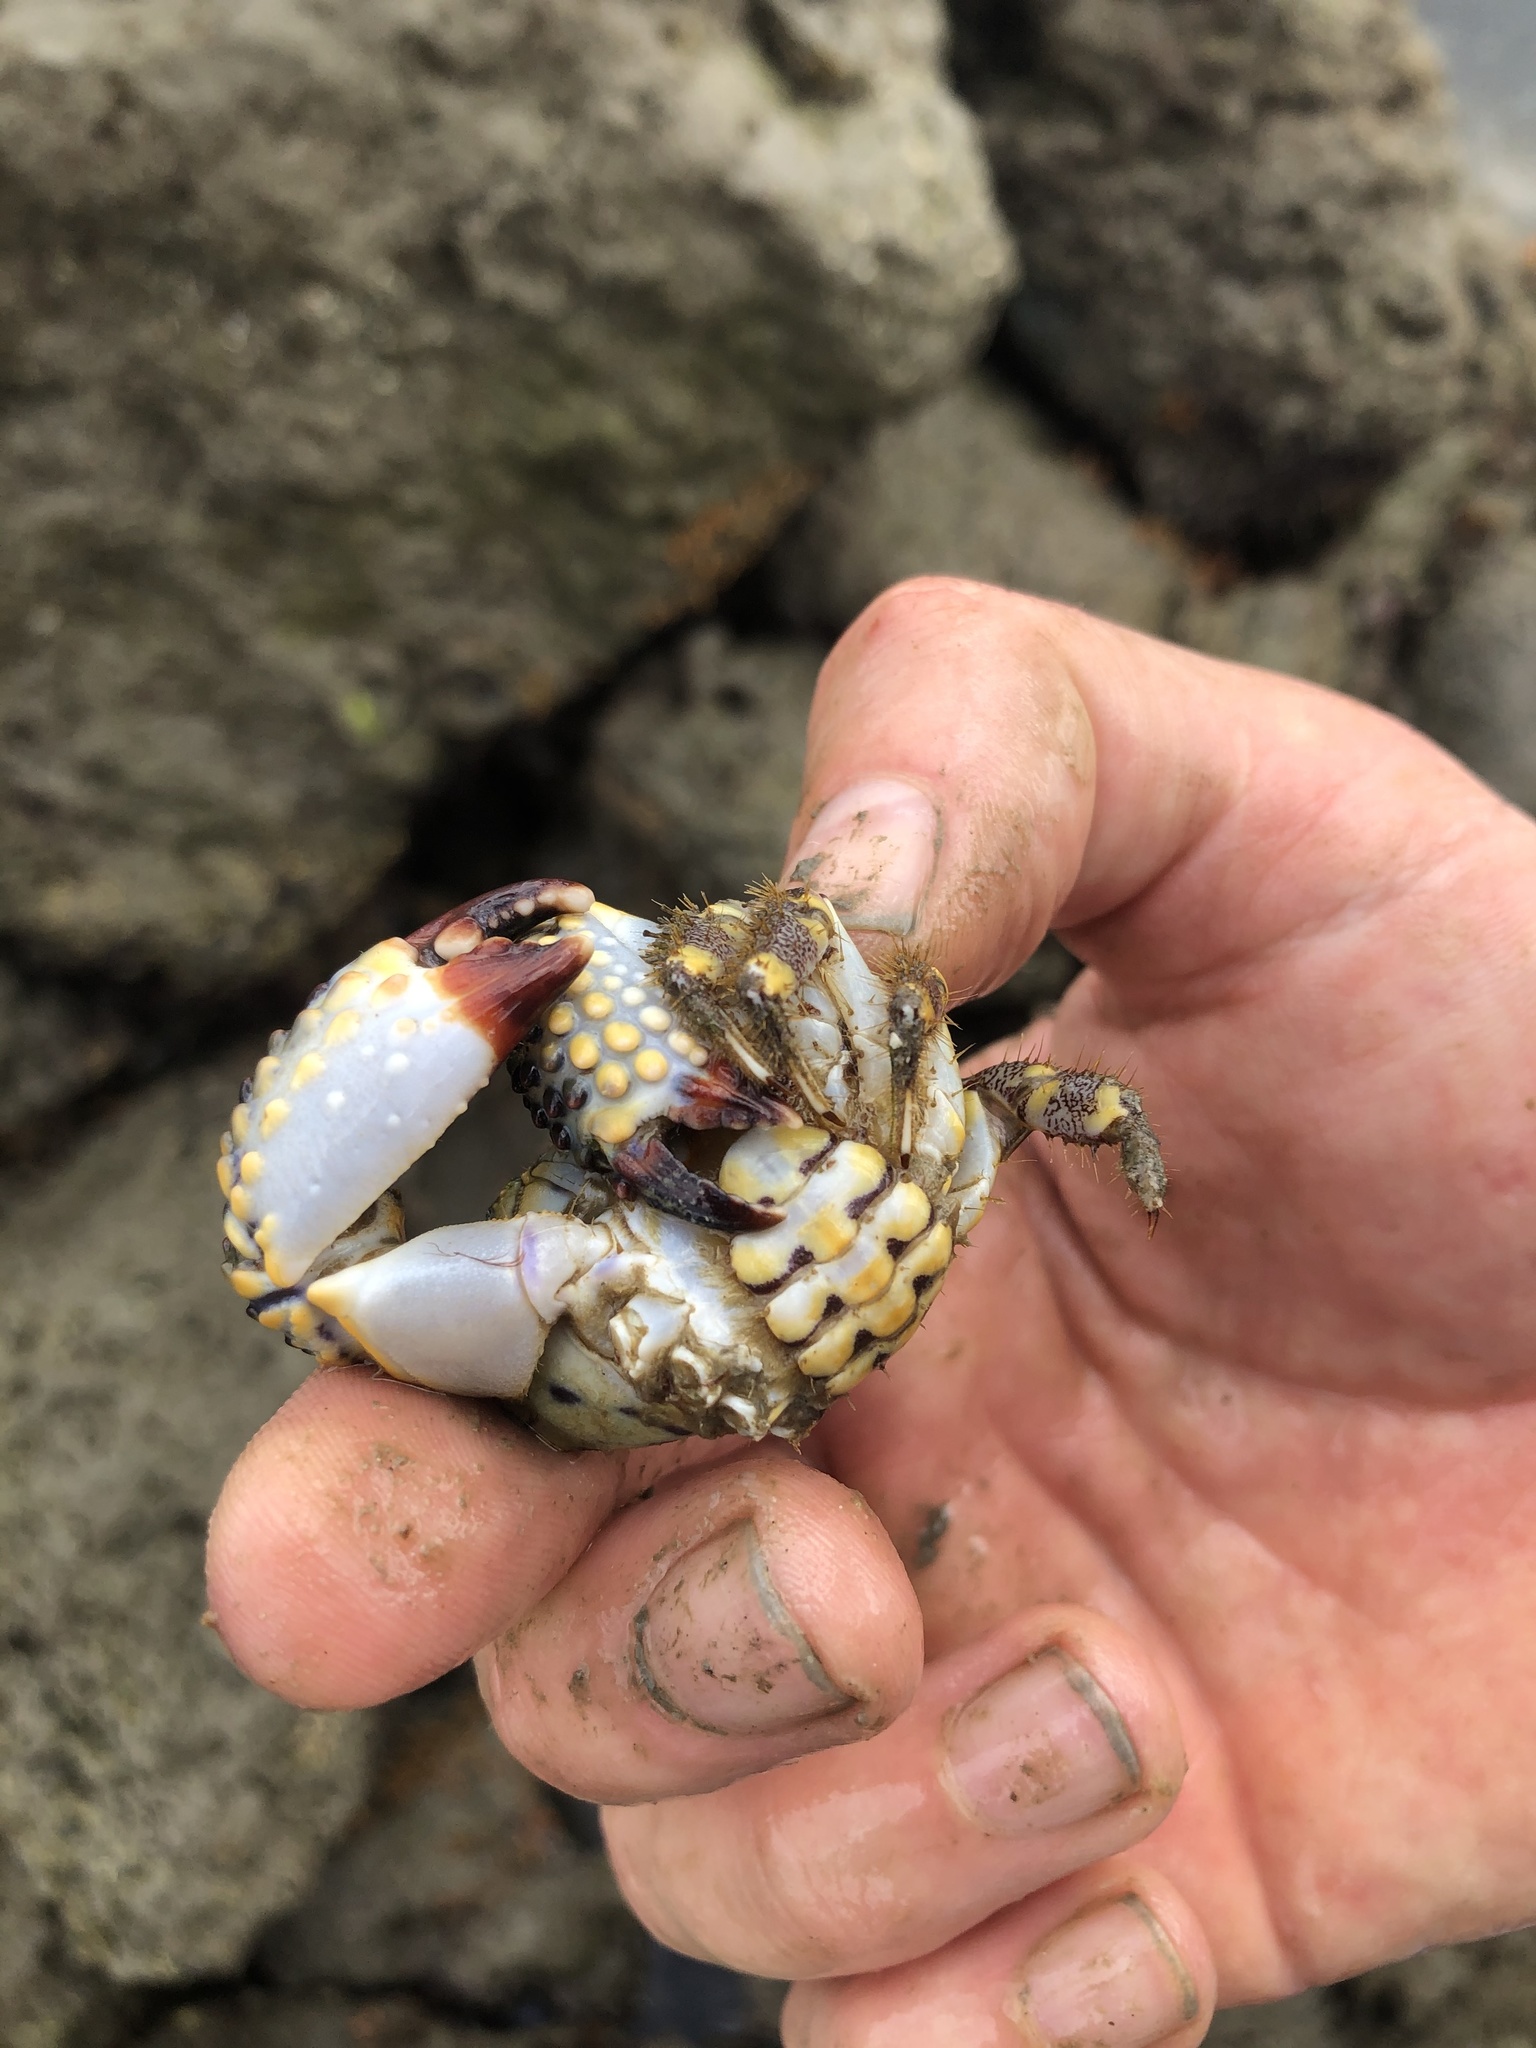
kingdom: Animalia
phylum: Arthropoda
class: Malacostraca
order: Decapoda
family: Eriphiidae
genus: Eriphia
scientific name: Eriphia gonagra
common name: Calico crab
